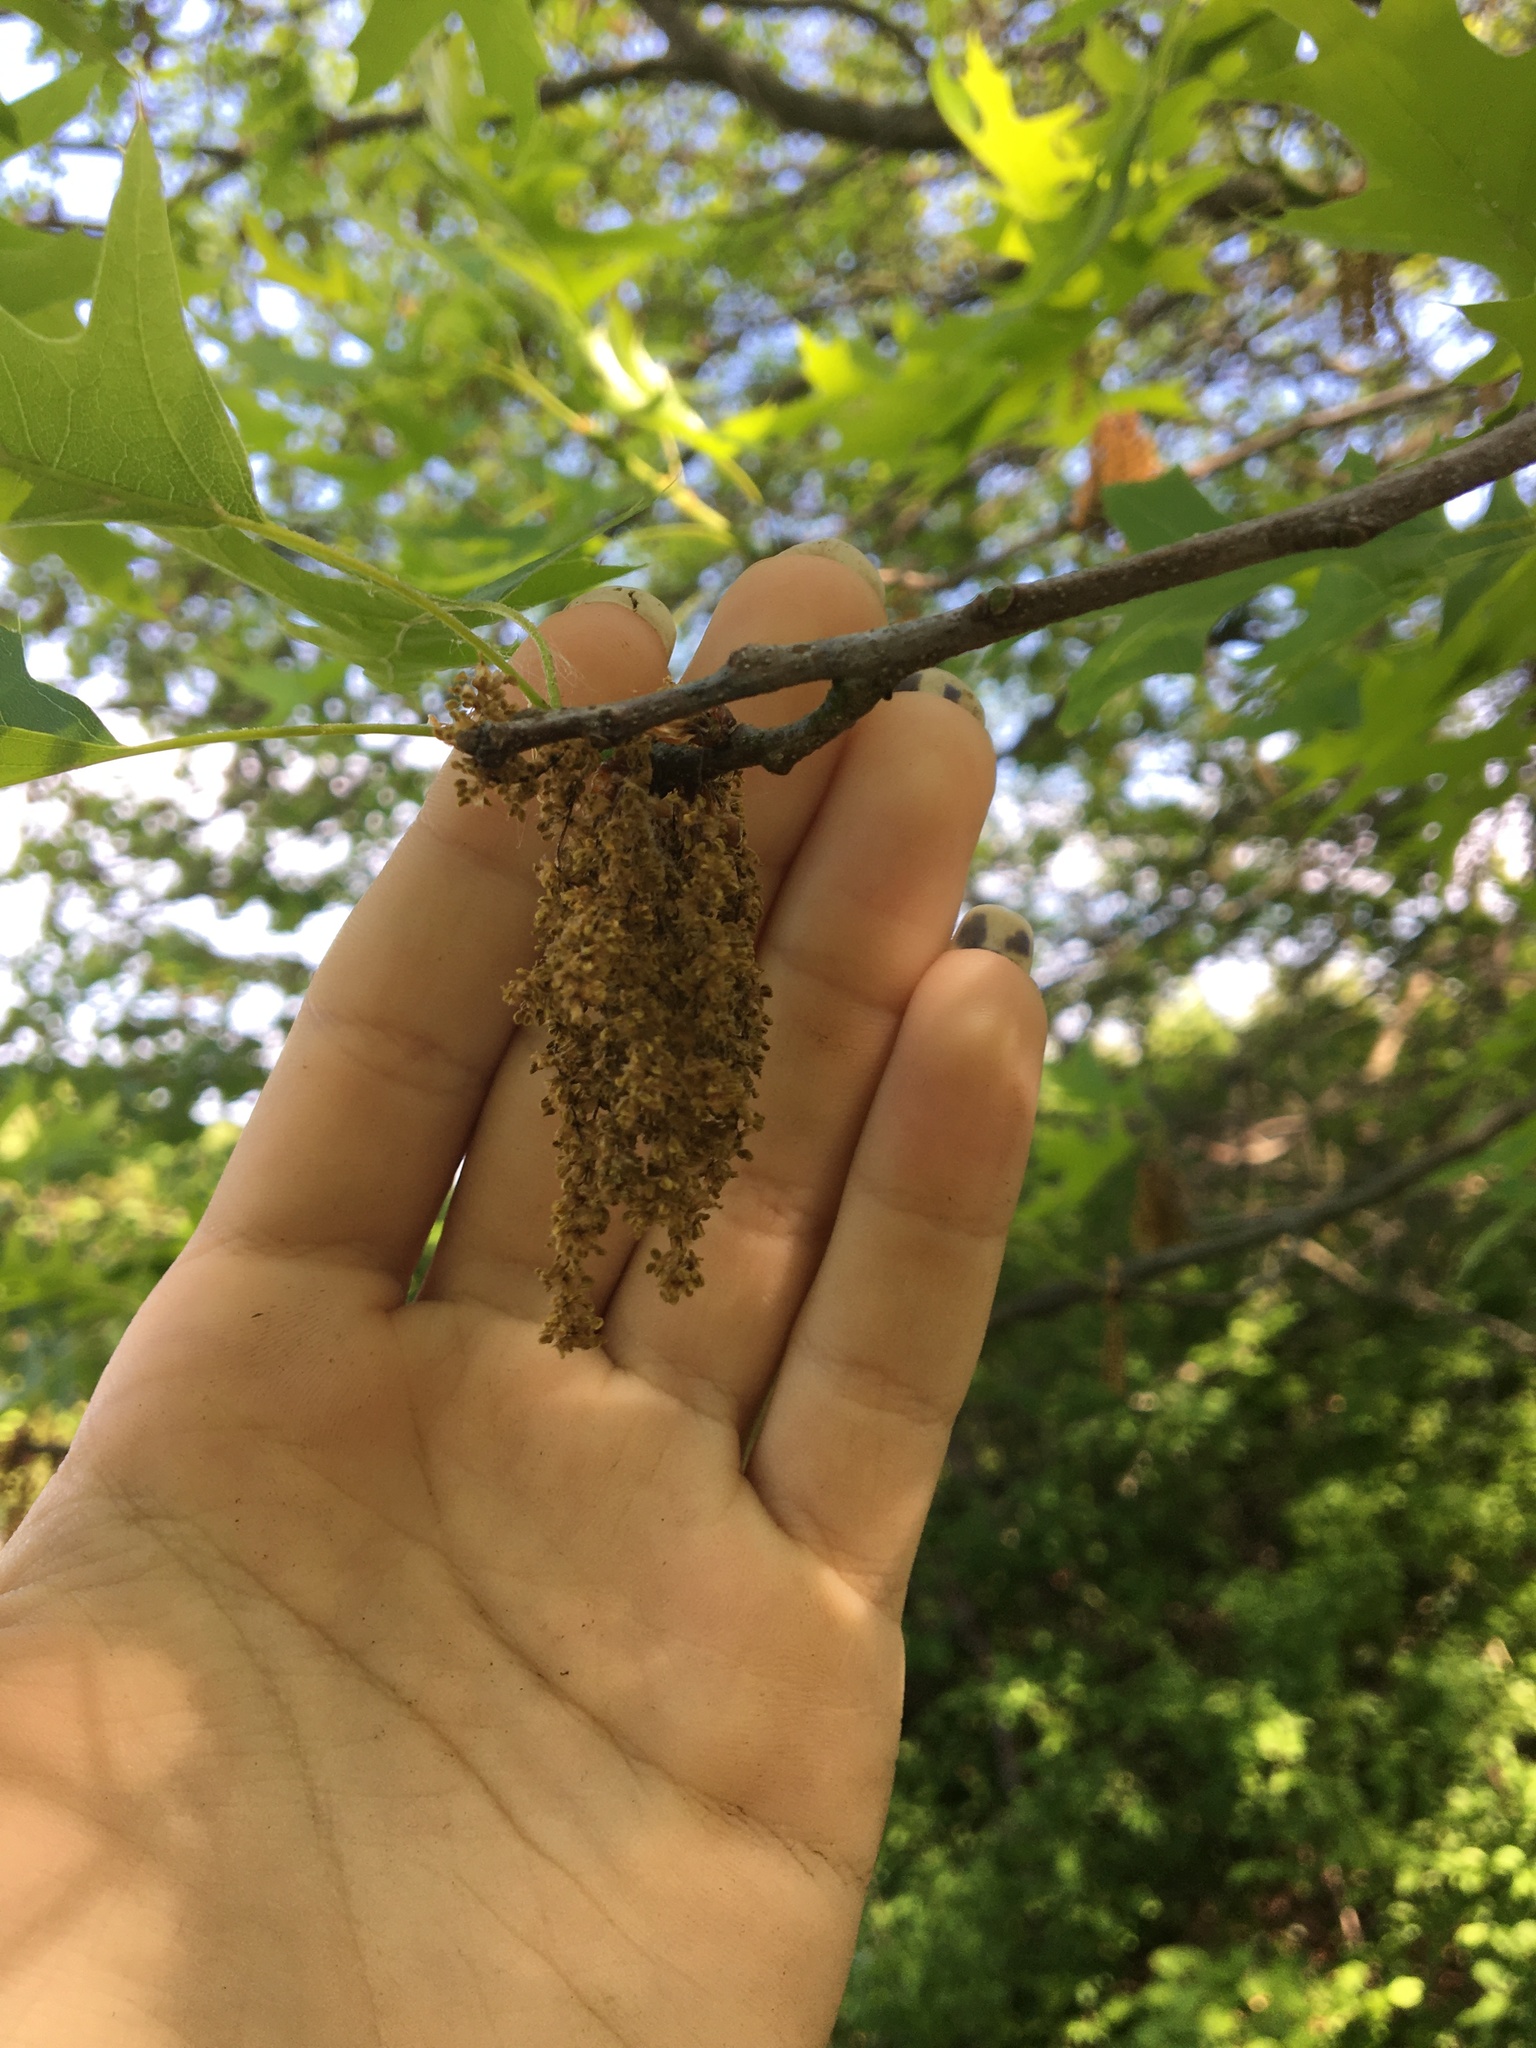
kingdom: Plantae
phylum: Tracheophyta
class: Magnoliopsida
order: Fagales
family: Fagaceae
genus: Quercus
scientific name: Quercus palustris
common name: Pin oak
